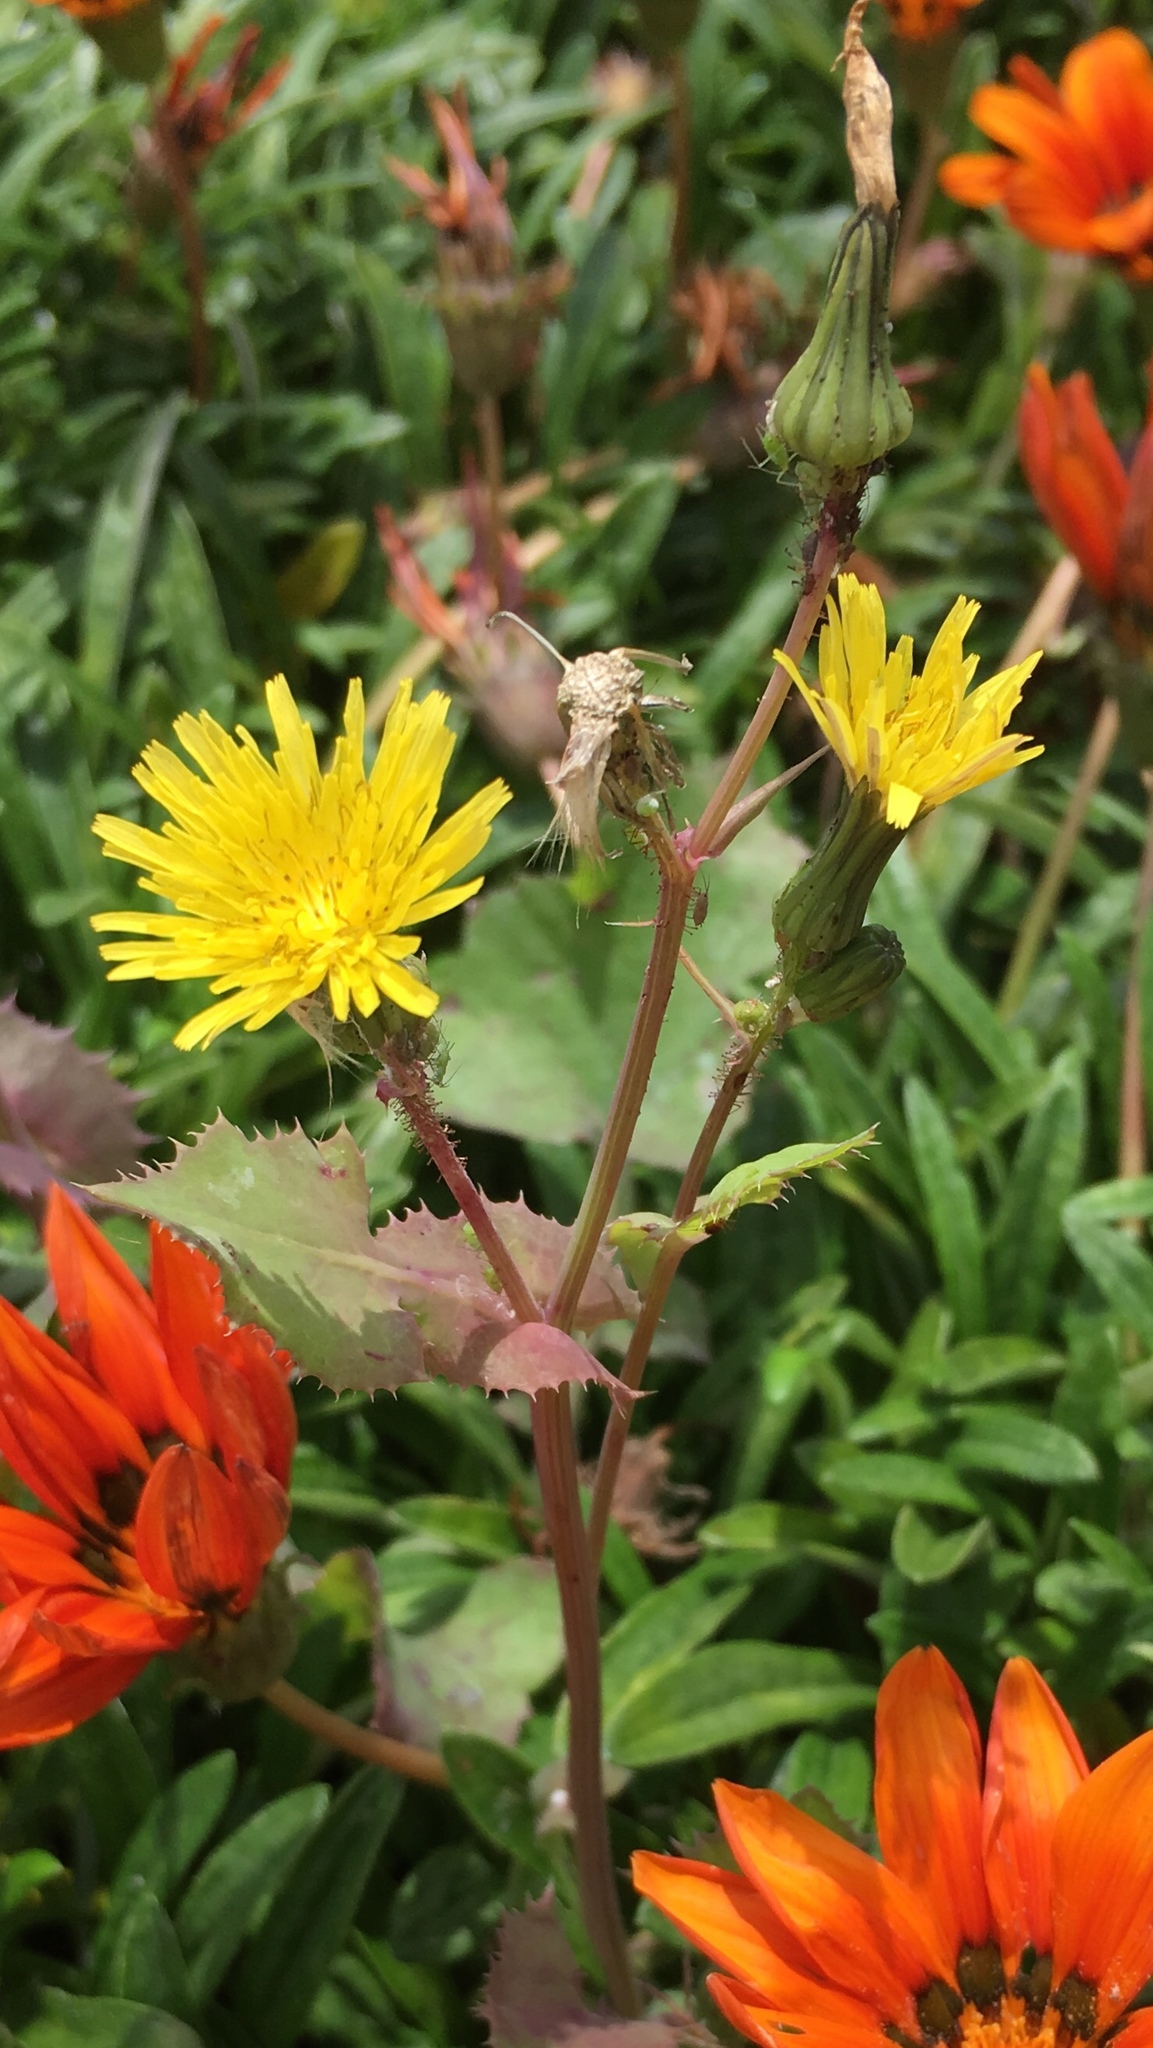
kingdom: Plantae
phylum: Tracheophyta
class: Magnoliopsida
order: Asterales
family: Asteraceae
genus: Sonchus
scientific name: Sonchus oleraceus
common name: Common sowthistle
